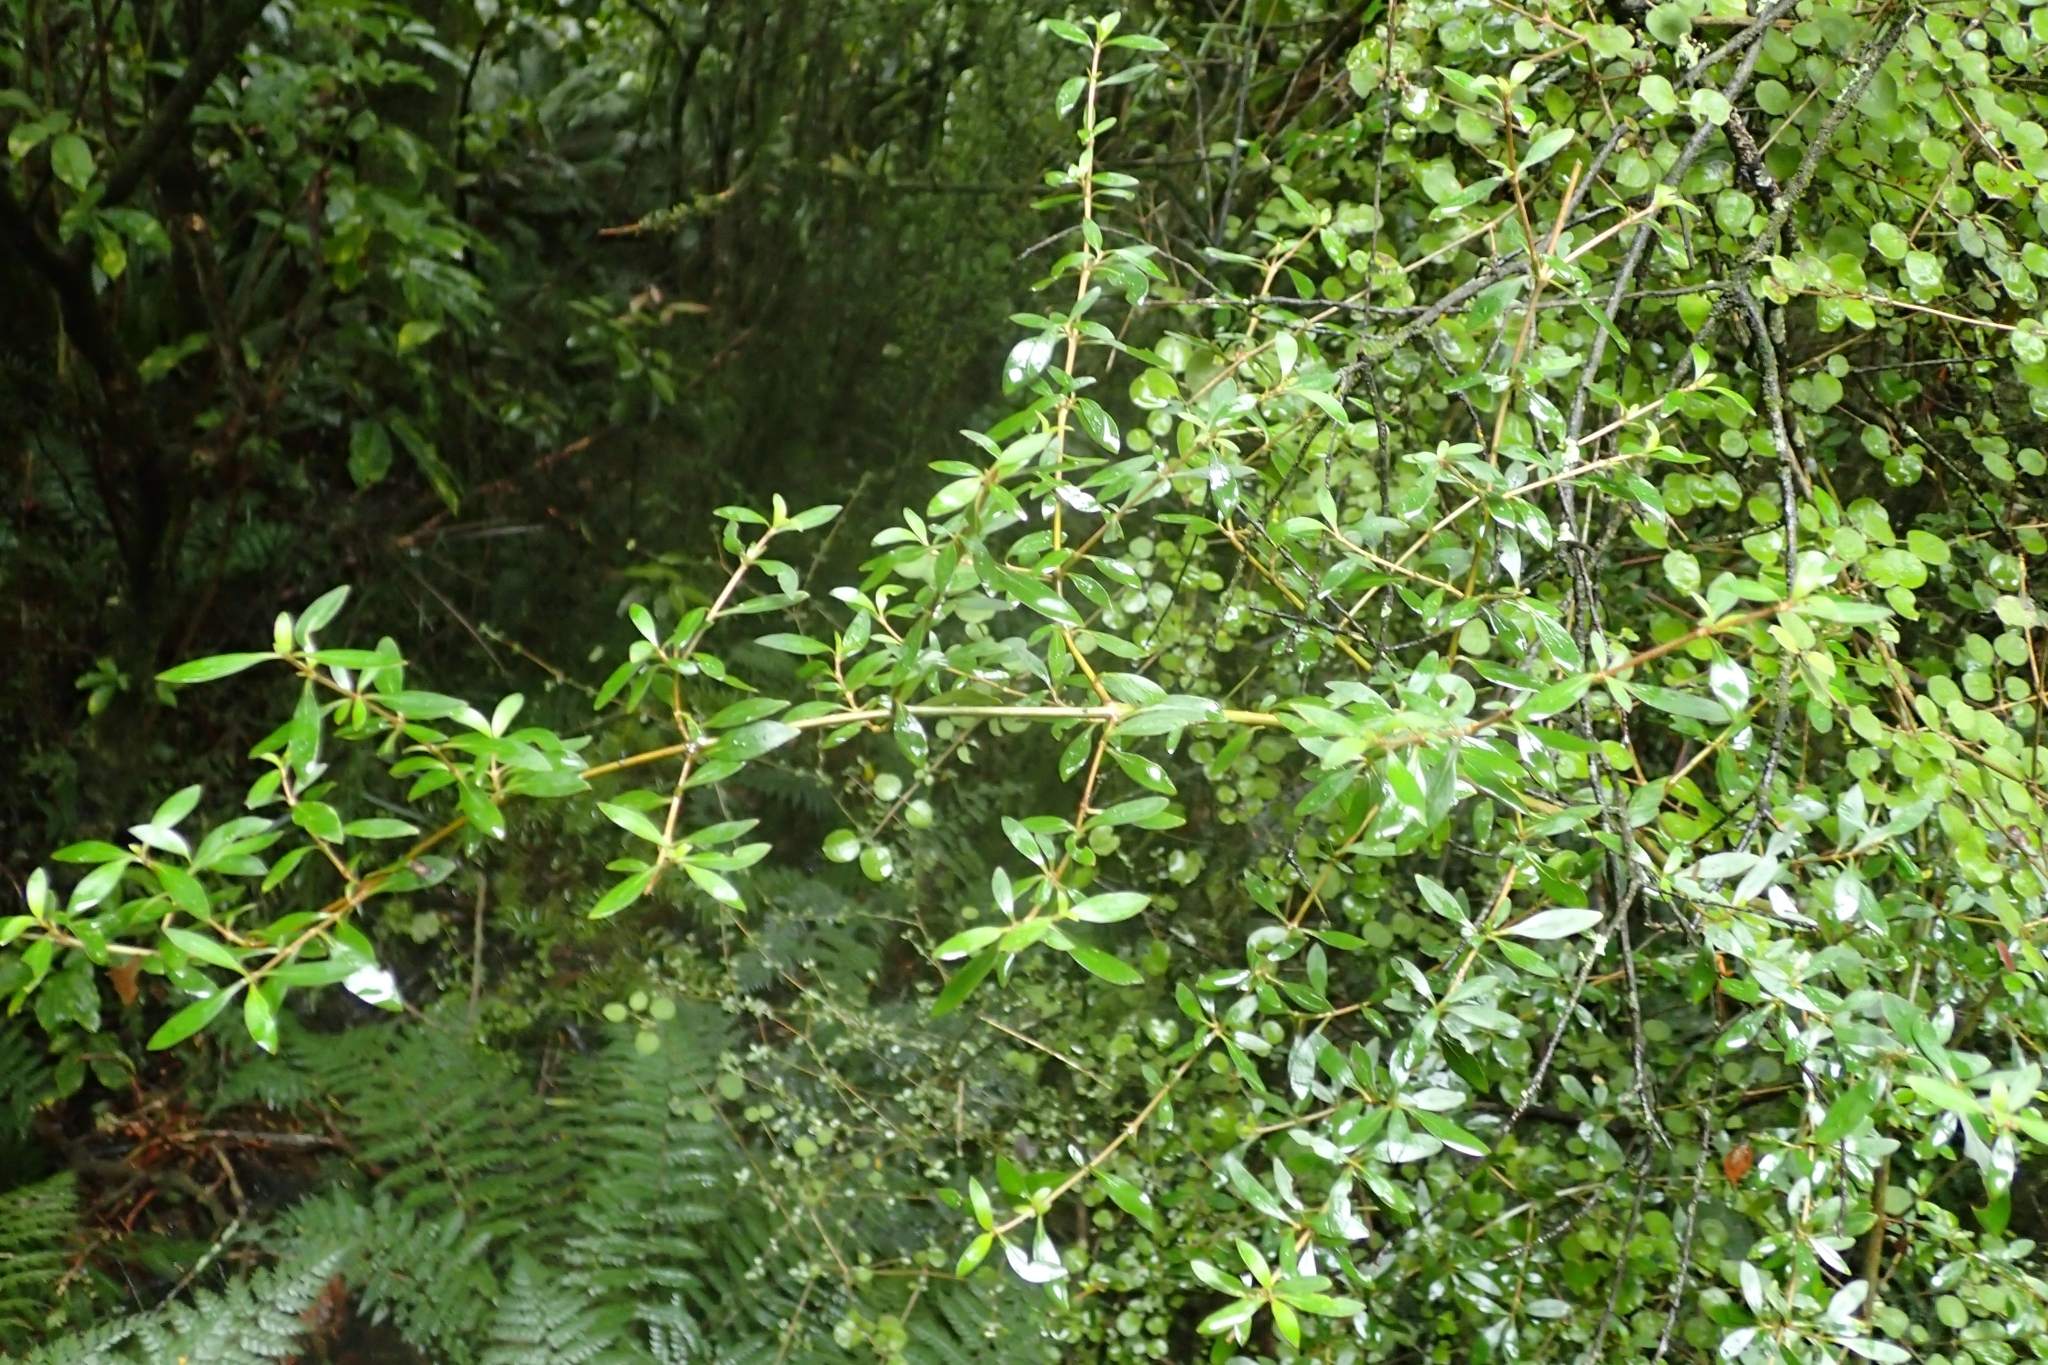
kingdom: Plantae
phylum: Tracheophyta
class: Magnoliopsida
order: Gentianales
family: Rubiaceae
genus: Coprosma
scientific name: Coprosma cunninghamii
